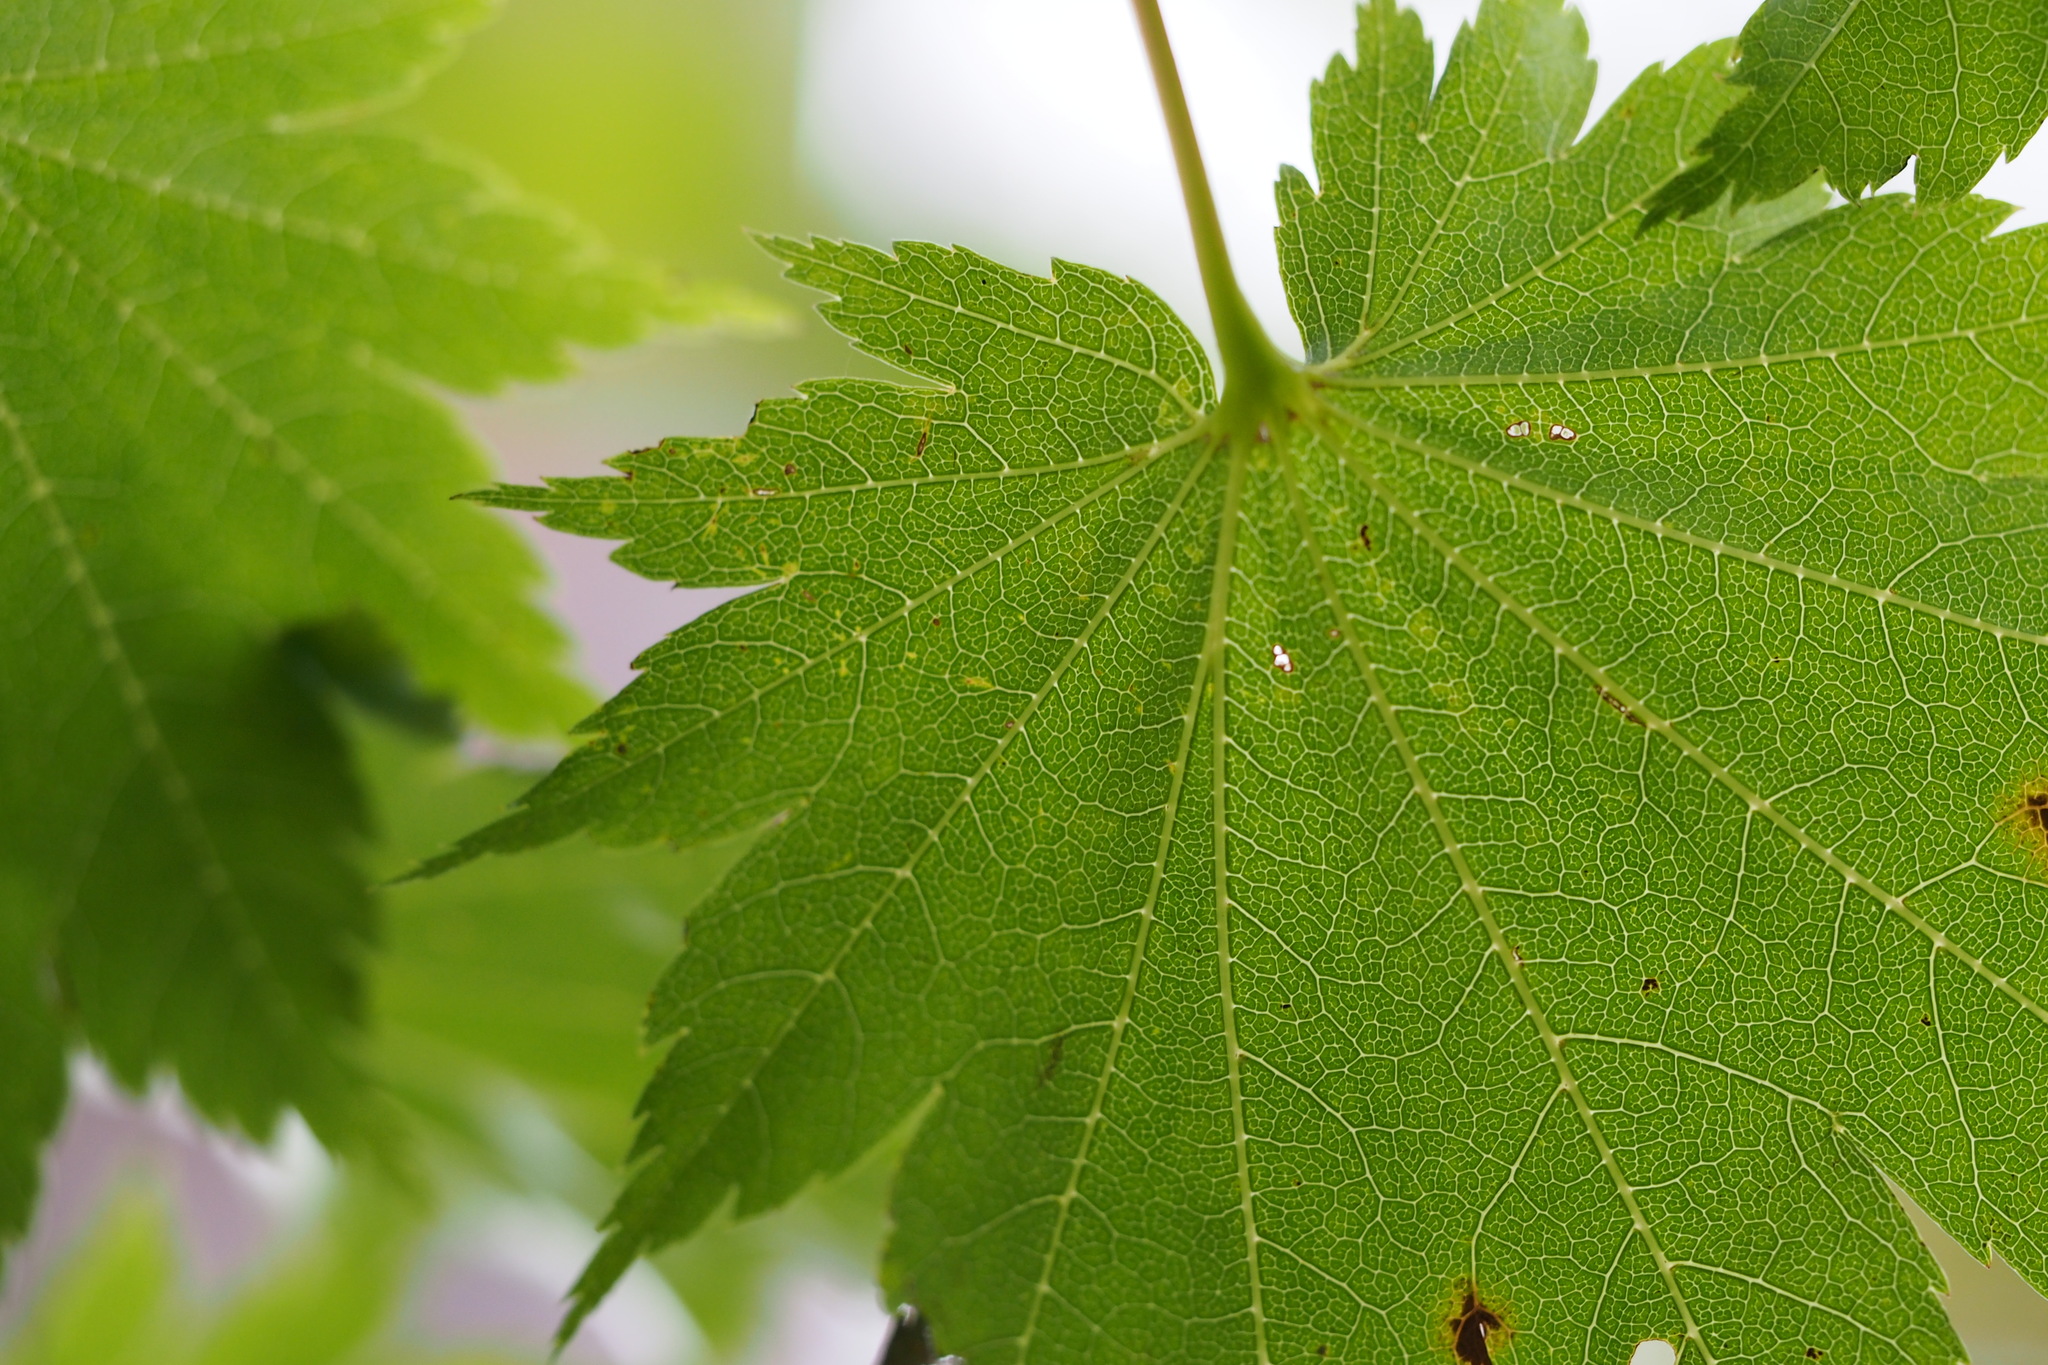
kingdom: Plantae
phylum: Tracheophyta
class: Magnoliopsida
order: Sapindales
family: Sapindaceae
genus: Acer
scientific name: Acer shirasawanum
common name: Full moon maple
